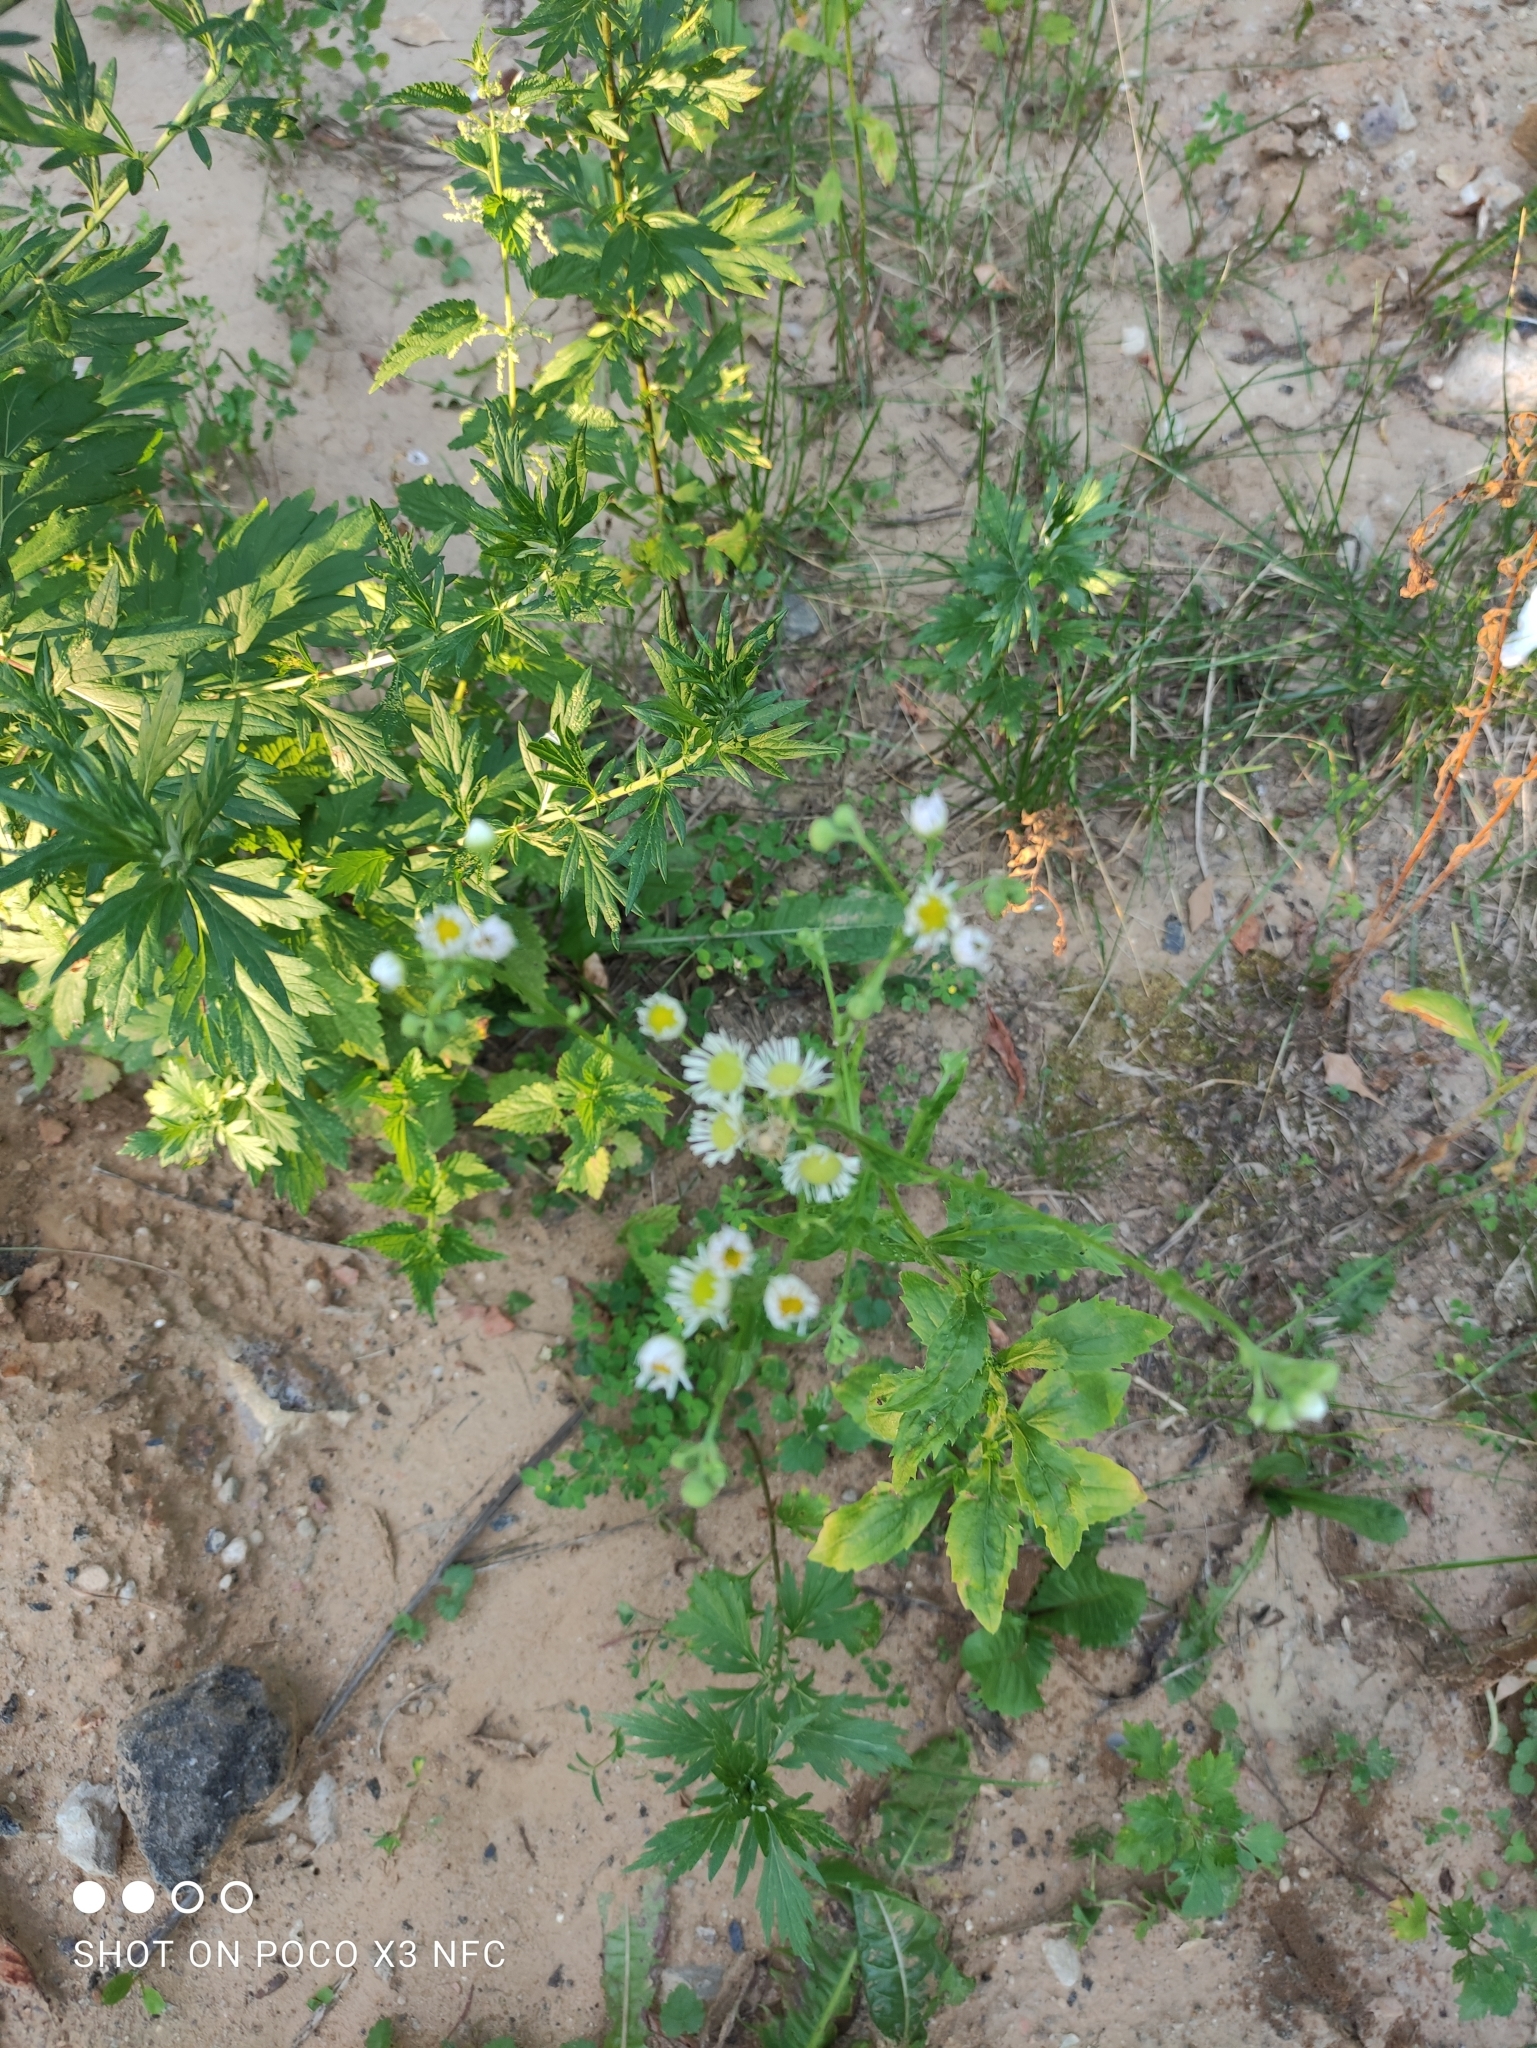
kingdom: Plantae
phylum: Tracheophyta
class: Magnoliopsida
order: Asterales
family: Asteraceae
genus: Erigeron
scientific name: Erigeron annuus
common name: Tall fleabane
